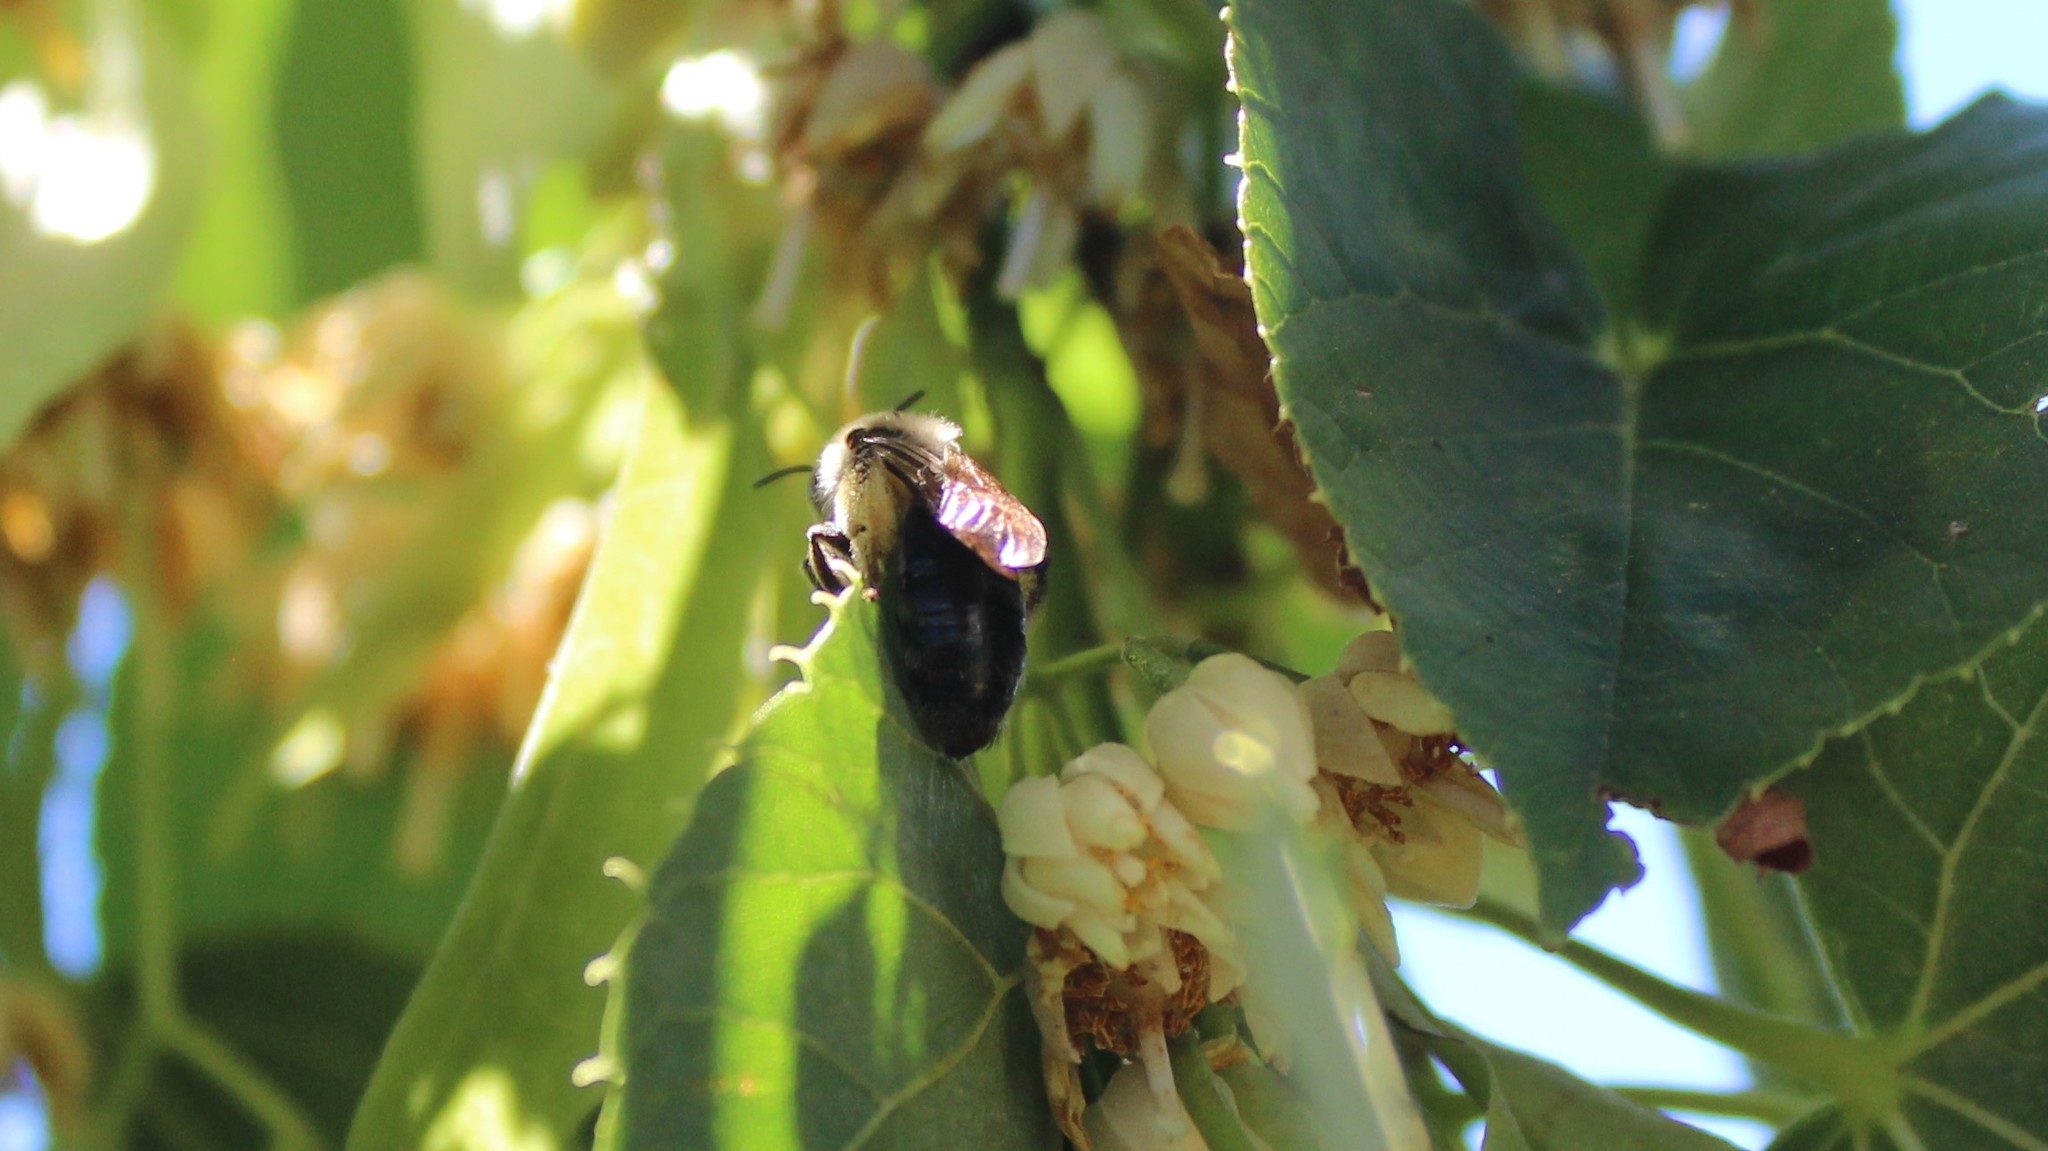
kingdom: Animalia
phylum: Arthropoda
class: Insecta
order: Hymenoptera
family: Apidae
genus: Xylocopa
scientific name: Xylocopa virginica
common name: Carpenter bee
